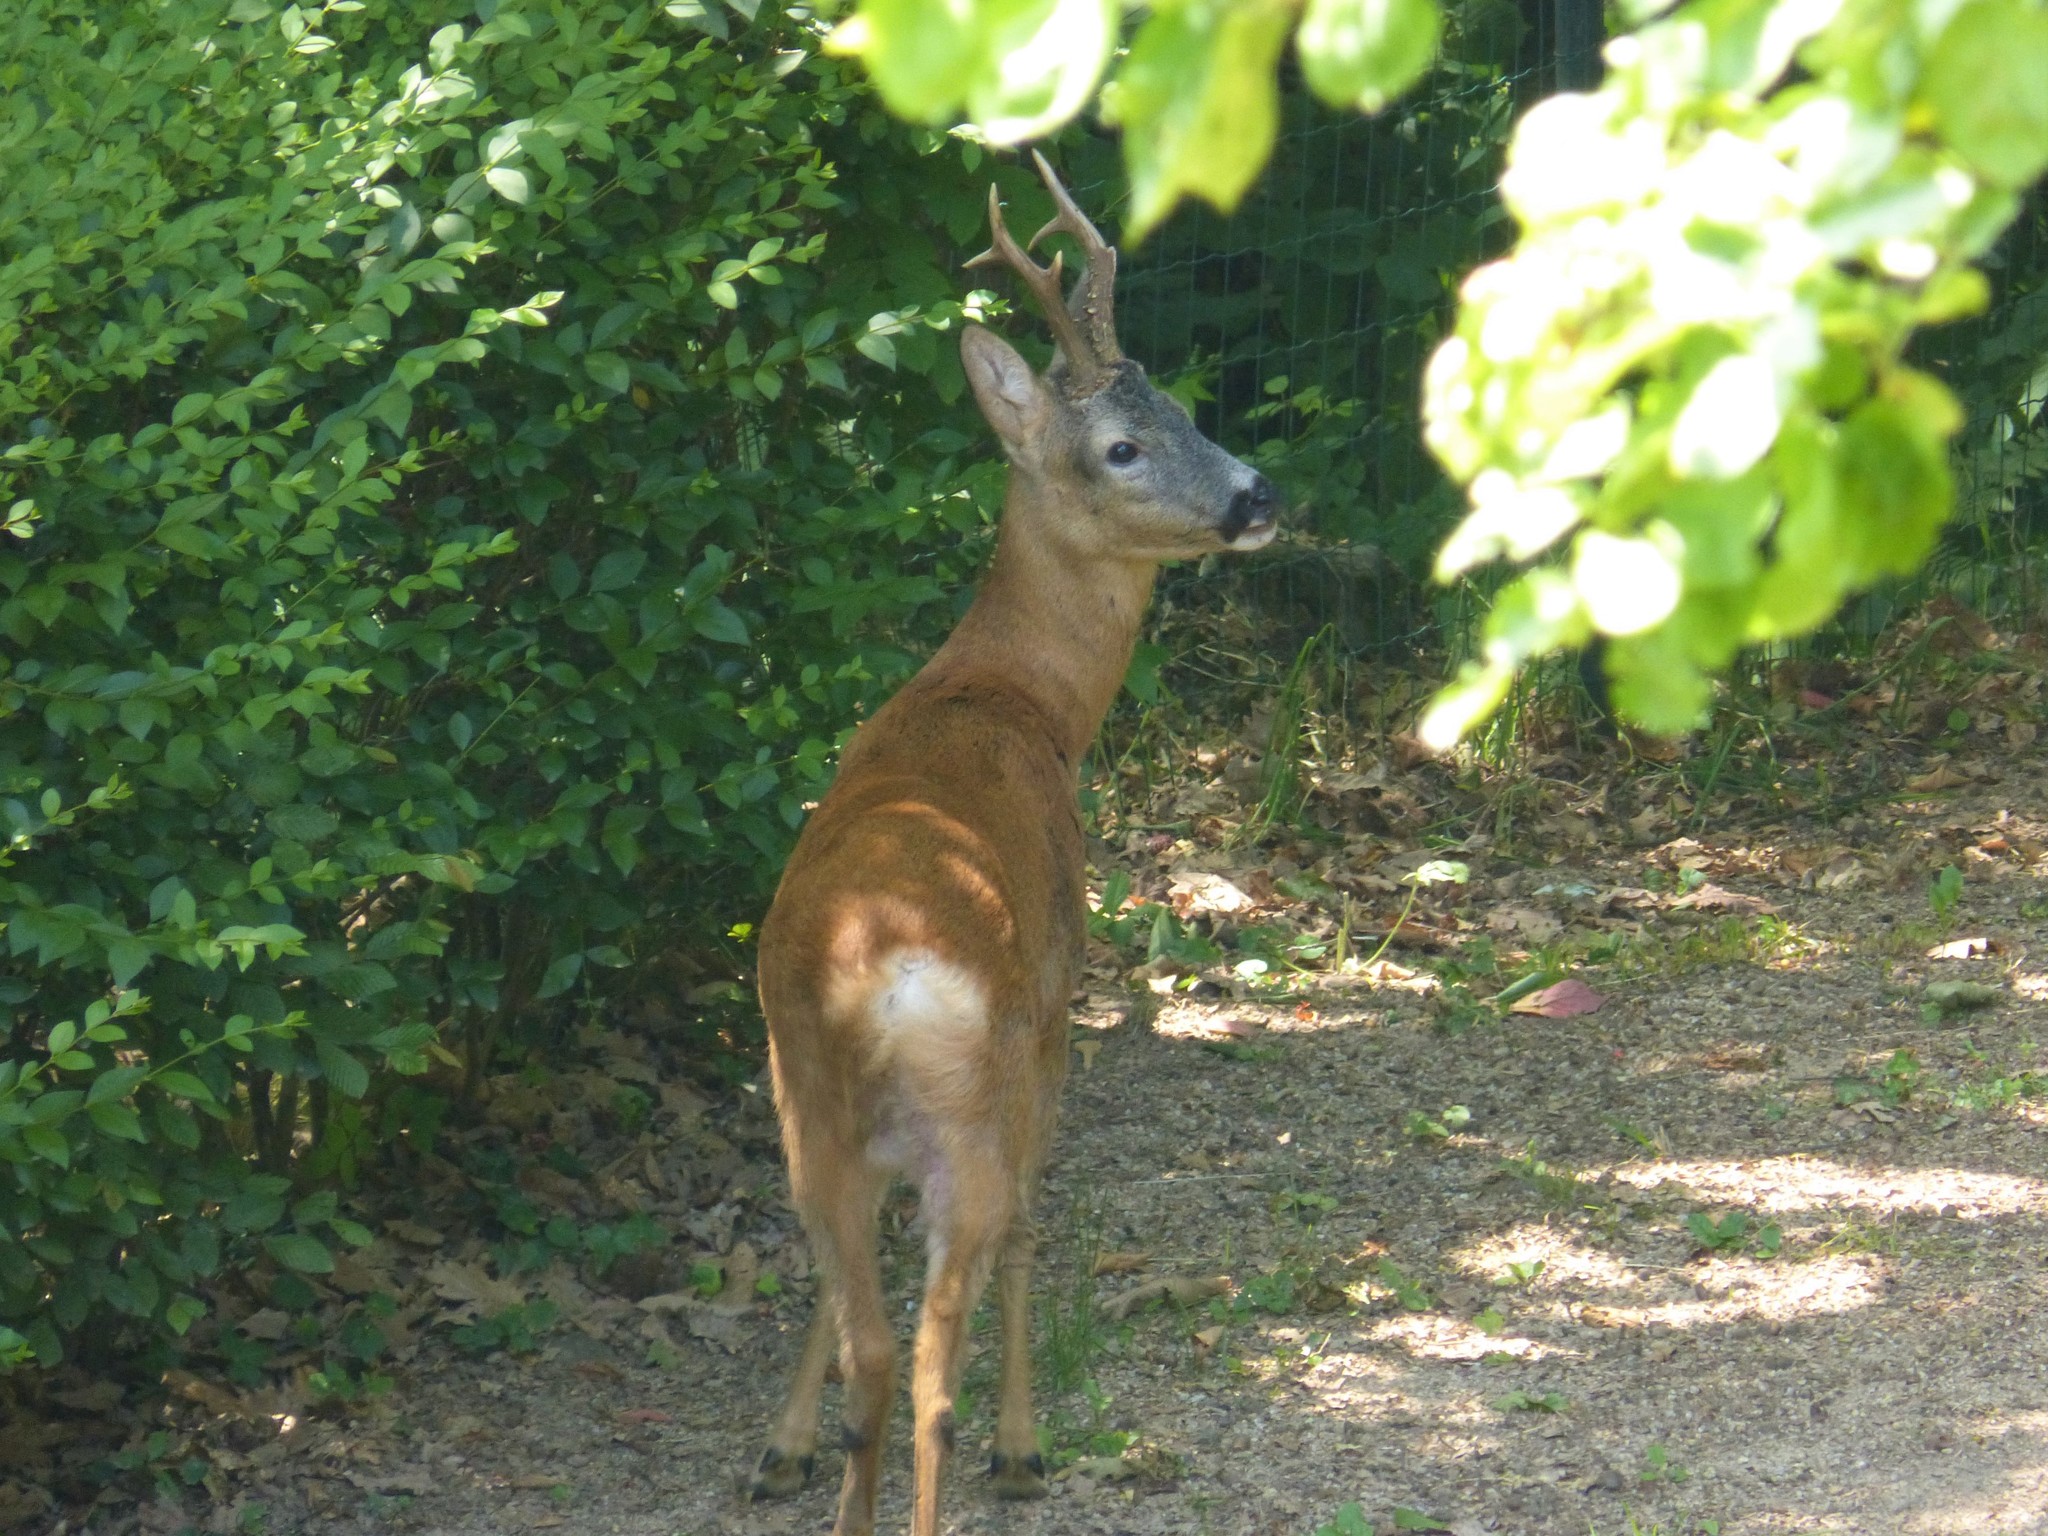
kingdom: Animalia
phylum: Chordata
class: Mammalia
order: Artiodactyla
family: Cervidae
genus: Capreolus
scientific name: Capreolus capreolus
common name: Western roe deer
